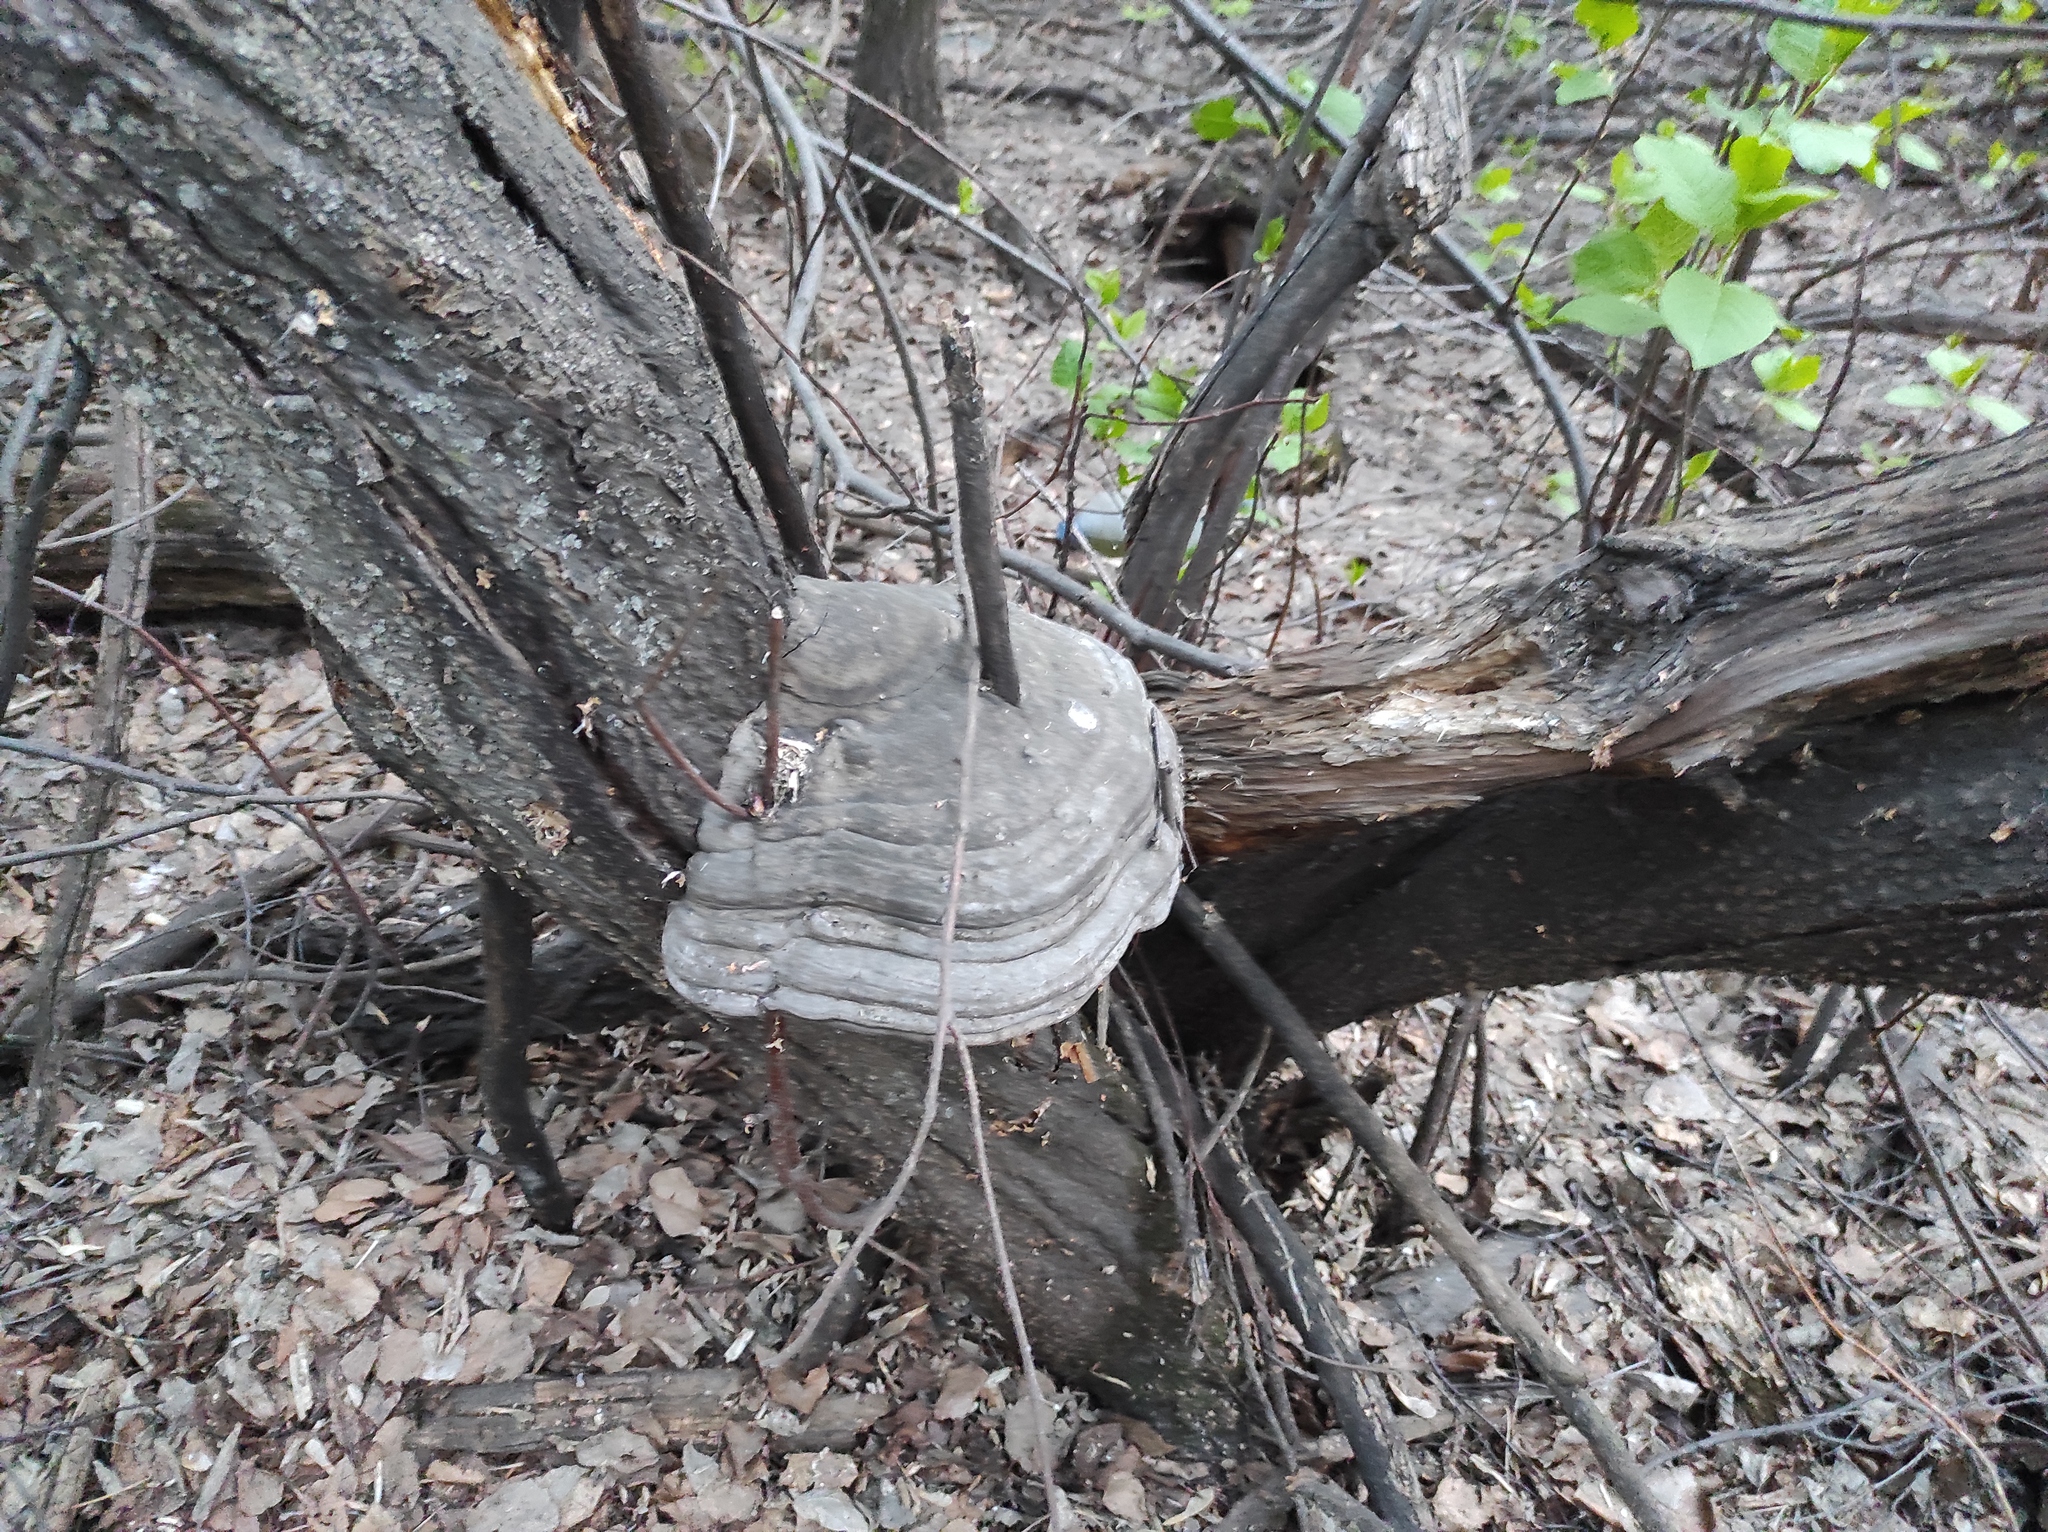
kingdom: Fungi
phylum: Basidiomycota
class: Agaricomycetes
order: Polyporales
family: Polyporaceae
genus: Fomes
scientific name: Fomes fomentarius
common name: Hoof fungus
